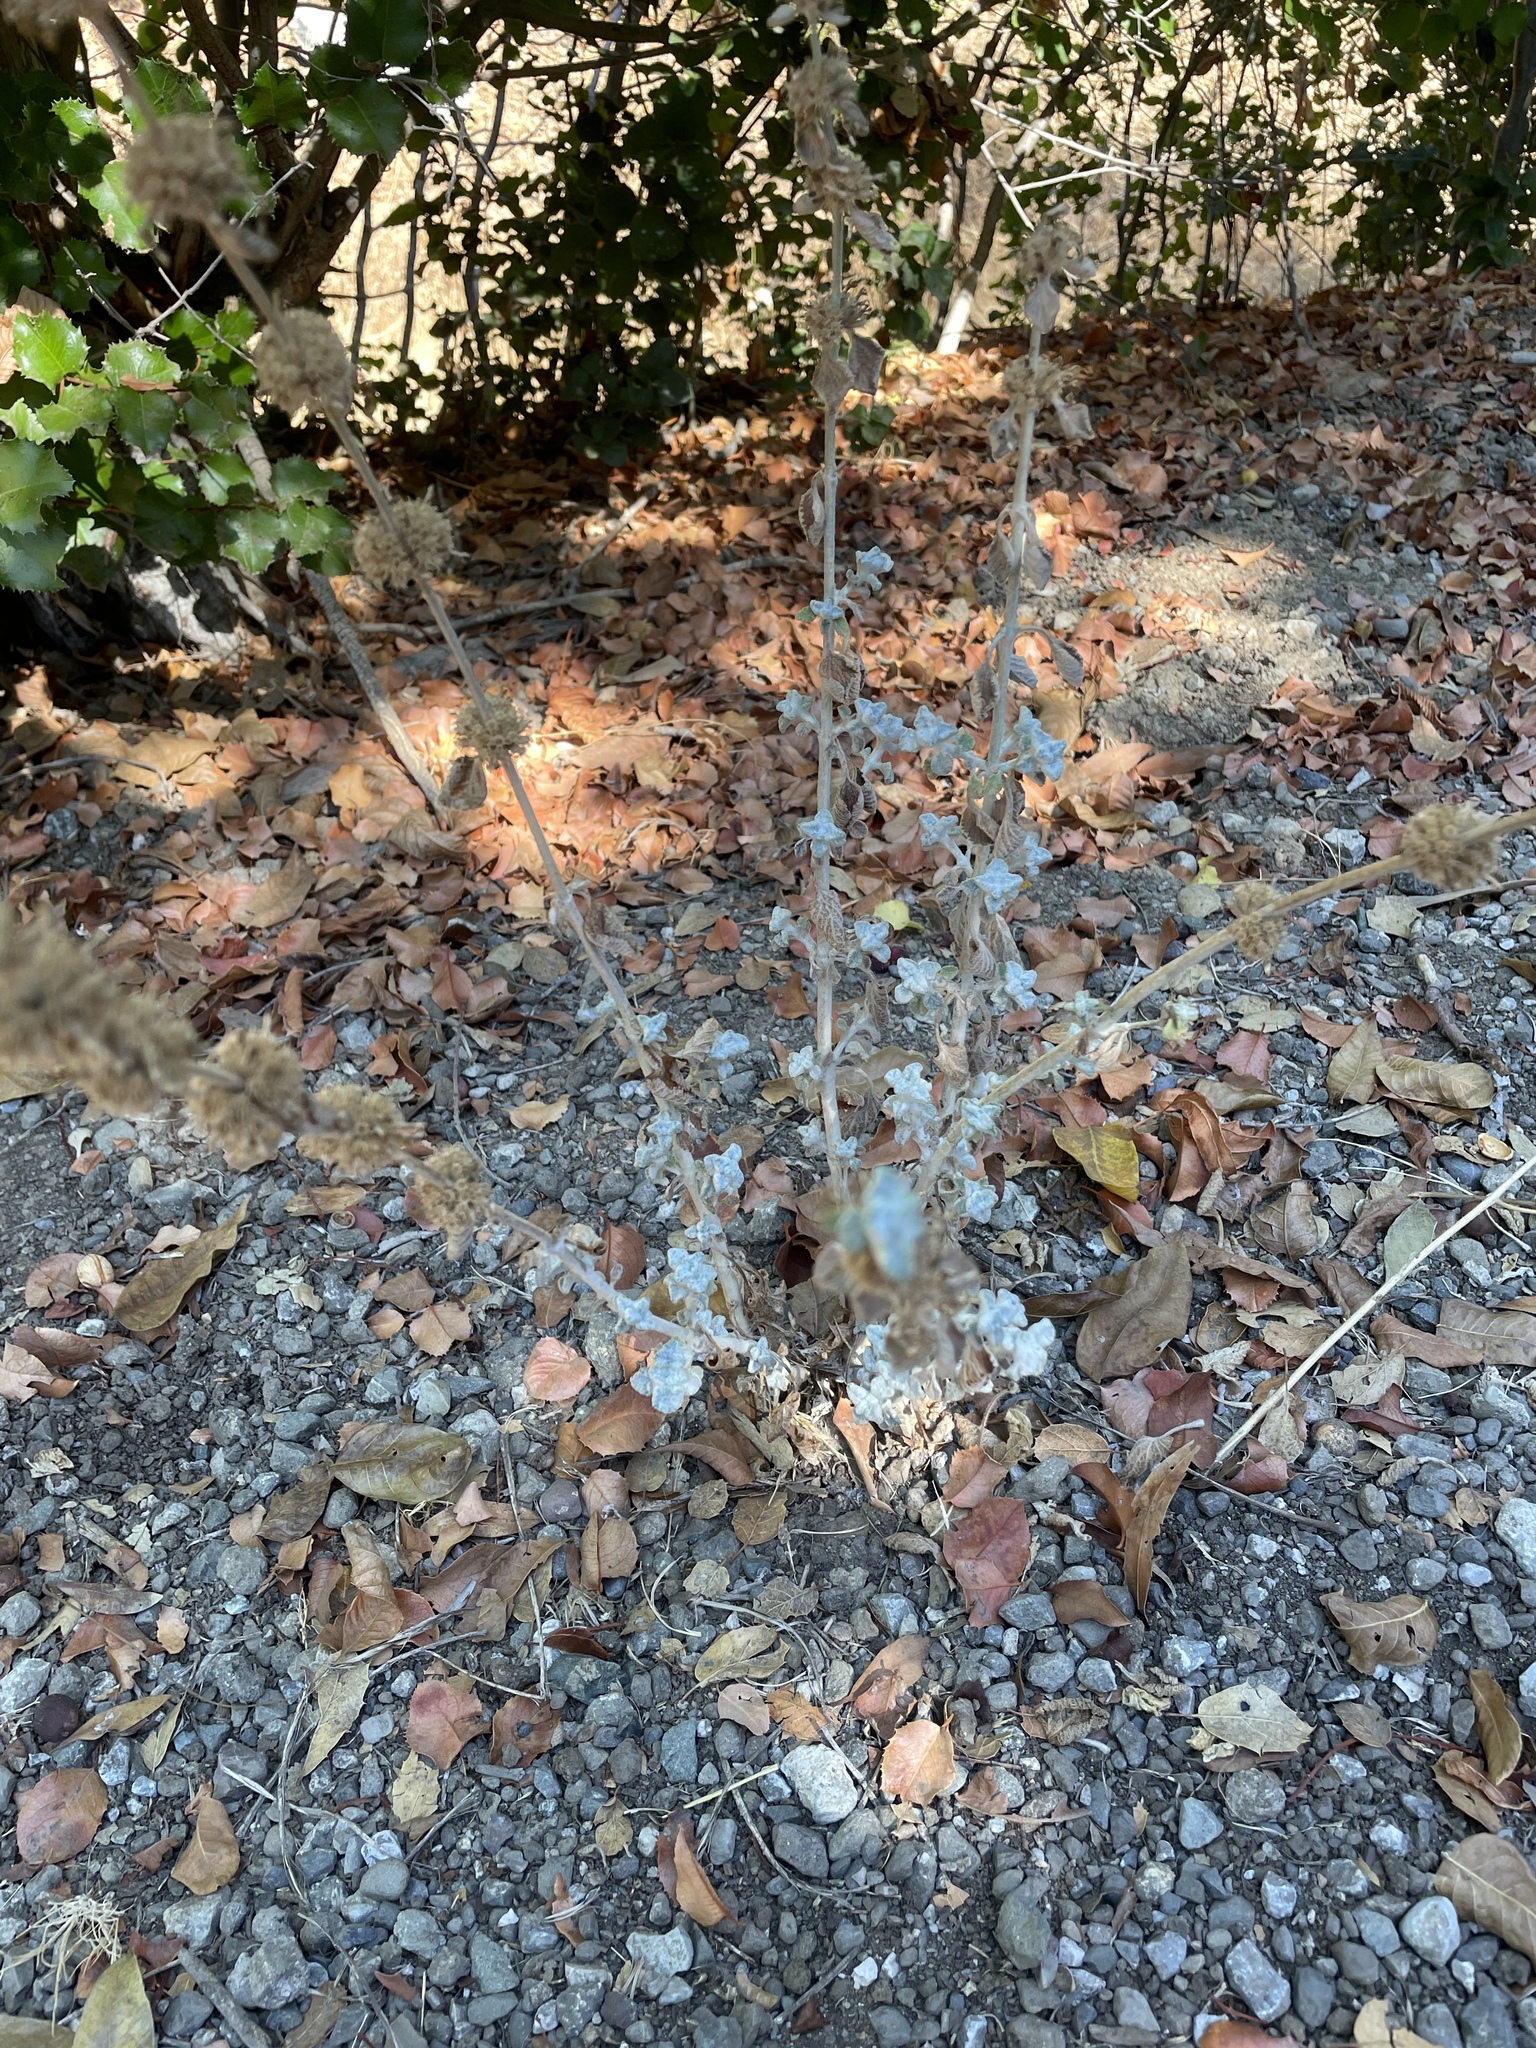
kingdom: Plantae
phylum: Tracheophyta
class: Magnoliopsida
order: Lamiales
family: Lamiaceae
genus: Marrubium
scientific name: Marrubium vulgare
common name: Horehound
